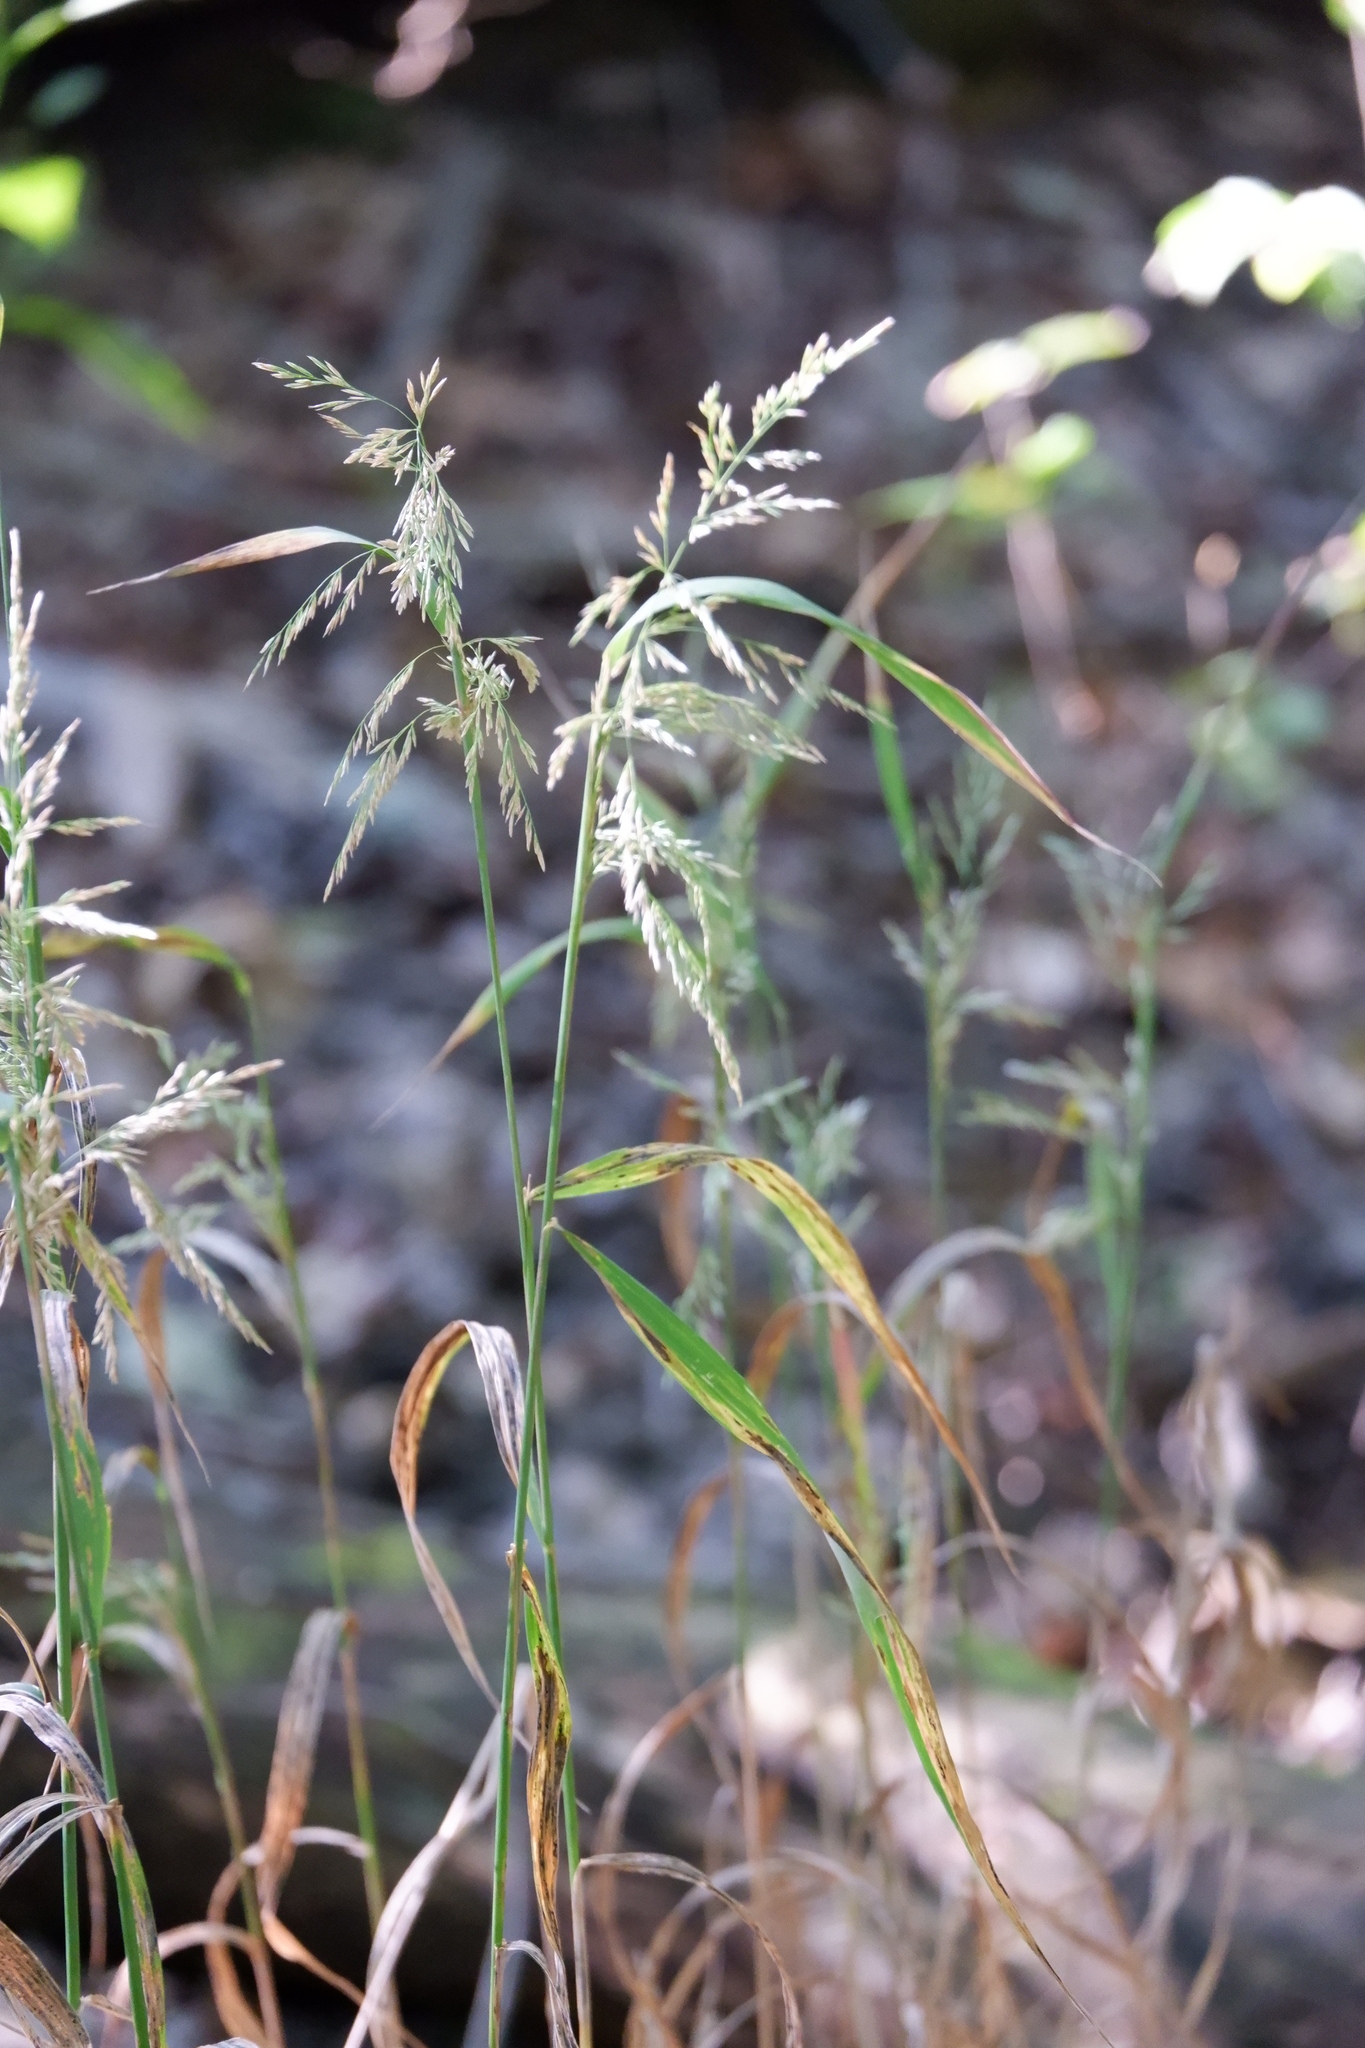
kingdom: Plantae
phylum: Tracheophyta
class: Liliopsida
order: Poales
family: Poaceae
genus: Cinna
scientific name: Cinna arundinacea
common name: Stout woodreed
